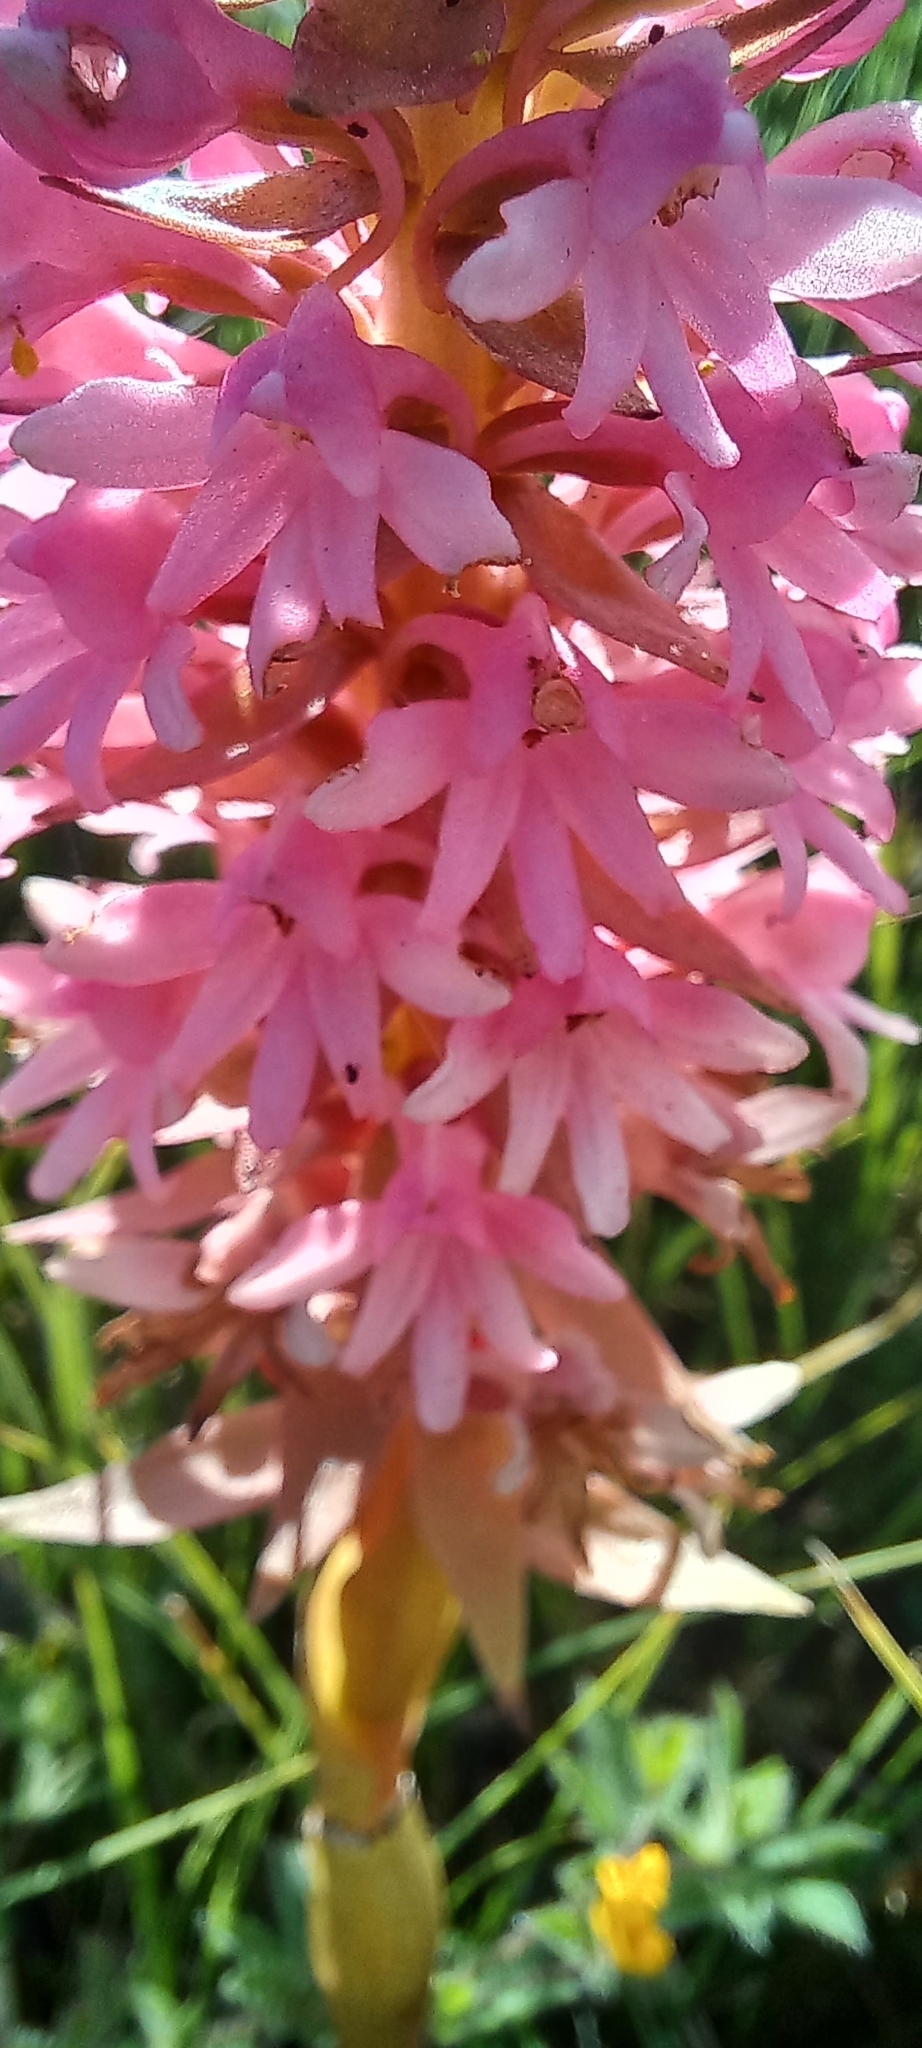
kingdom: Plantae
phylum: Tracheophyta
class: Liliopsida
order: Asparagales
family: Orchidaceae
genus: Satyrium
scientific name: Satyrium hallackii
